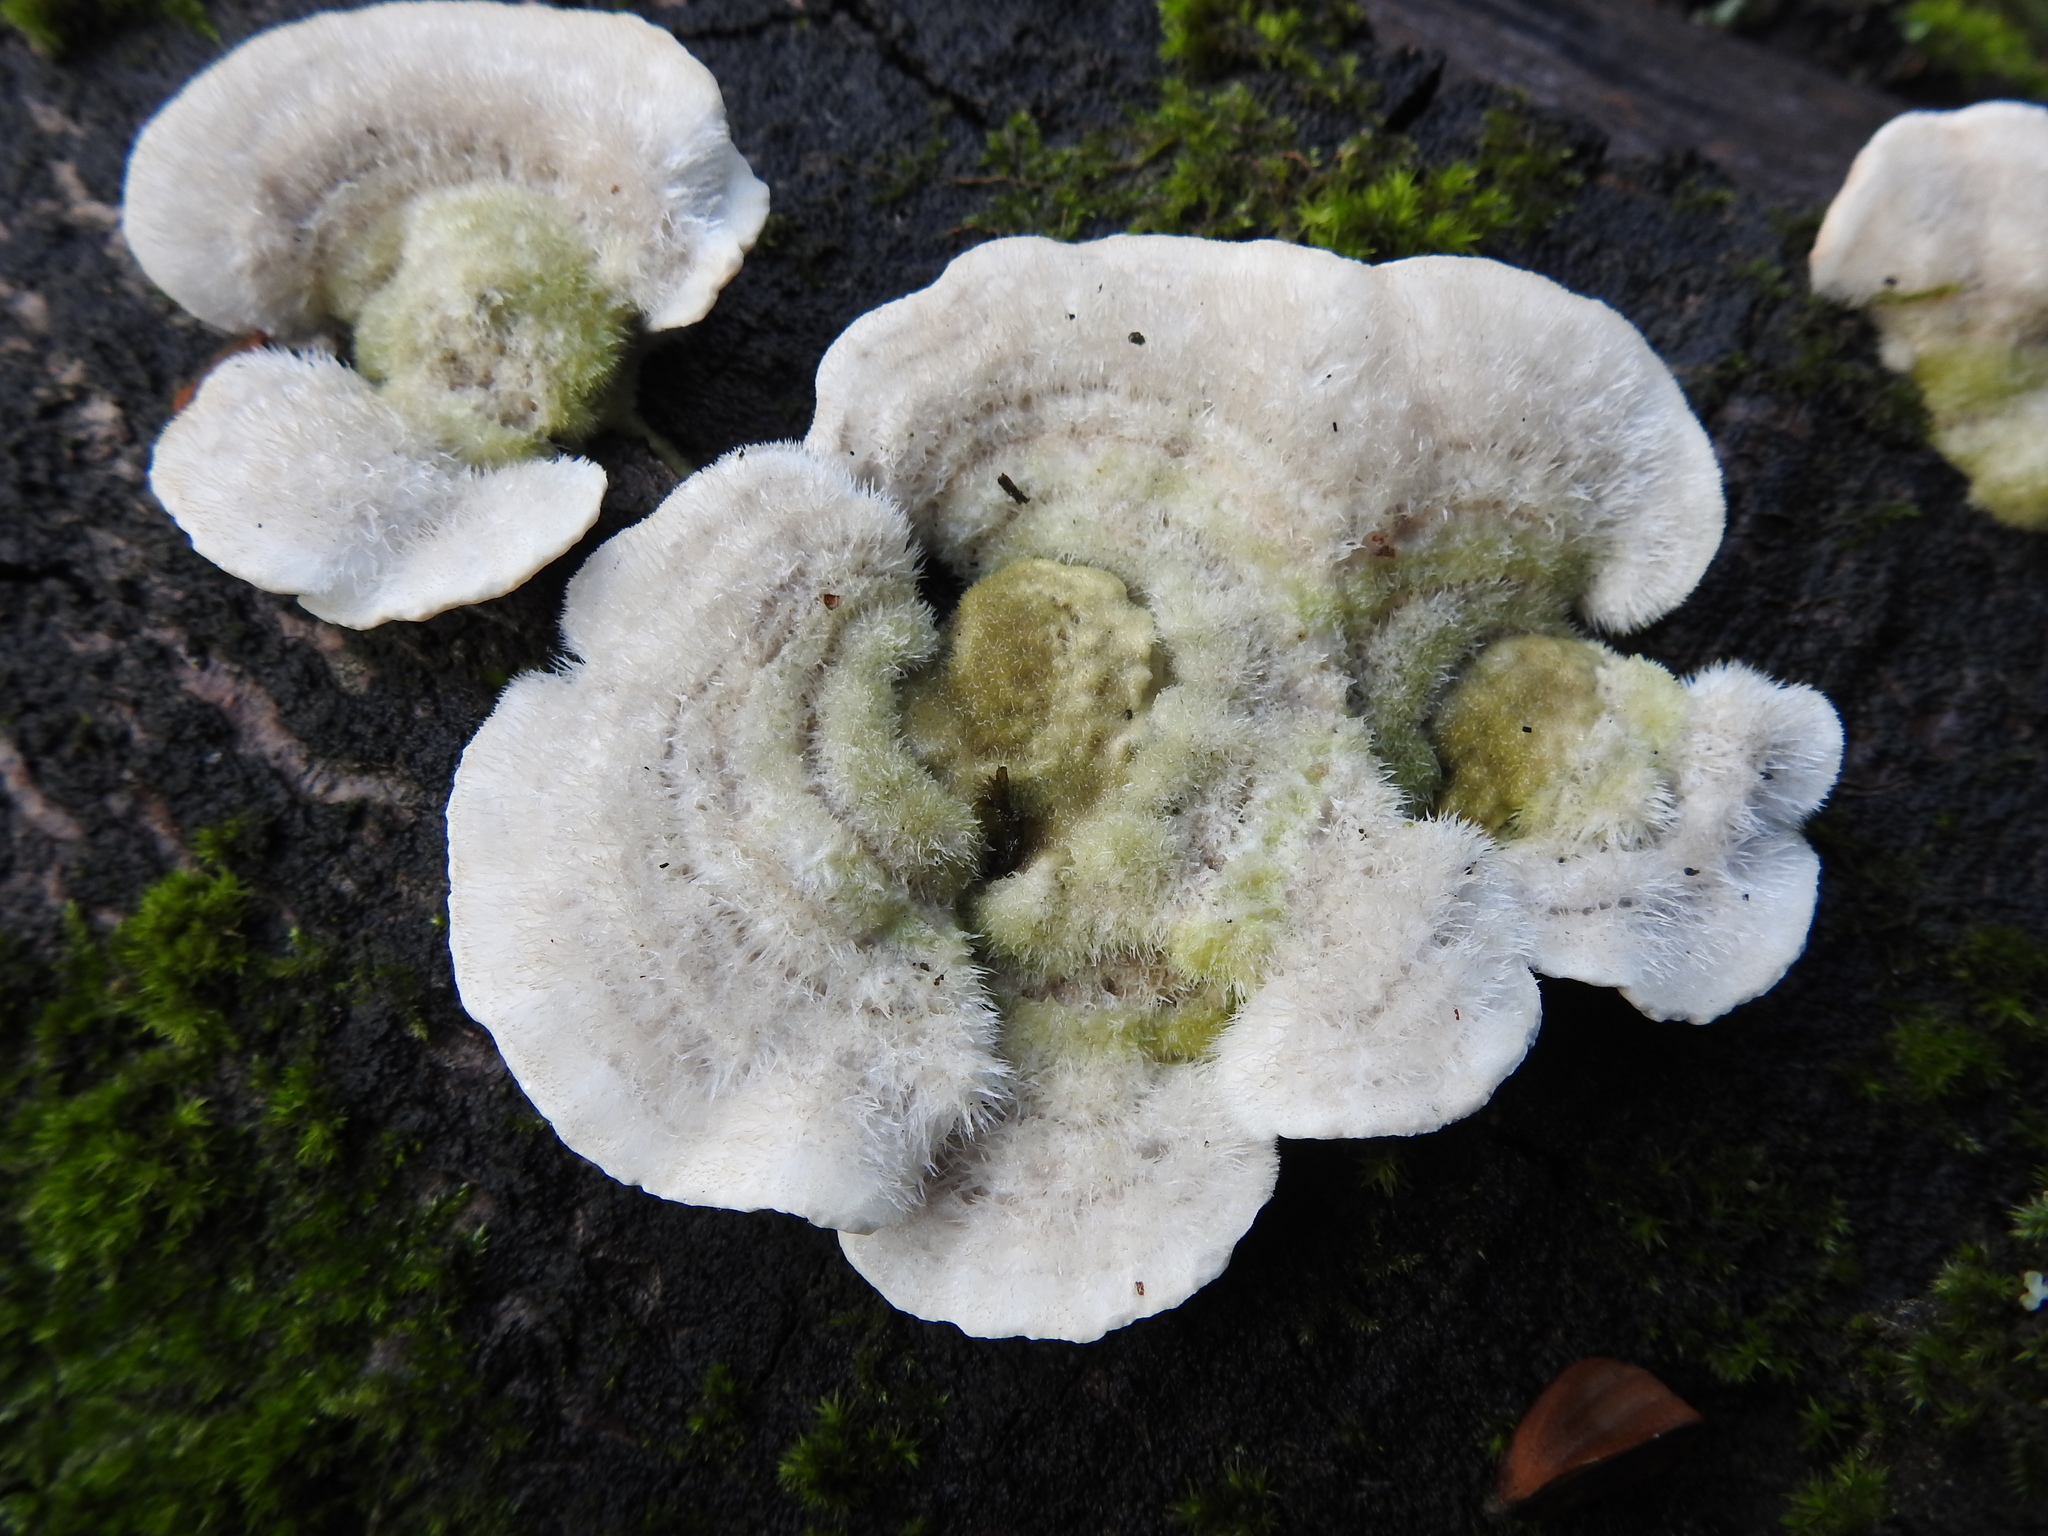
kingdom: Fungi
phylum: Basidiomycota
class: Agaricomycetes
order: Polyporales
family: Polyporaceae
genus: Trametes
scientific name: Trametes hirsuta
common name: Hairy bracket
